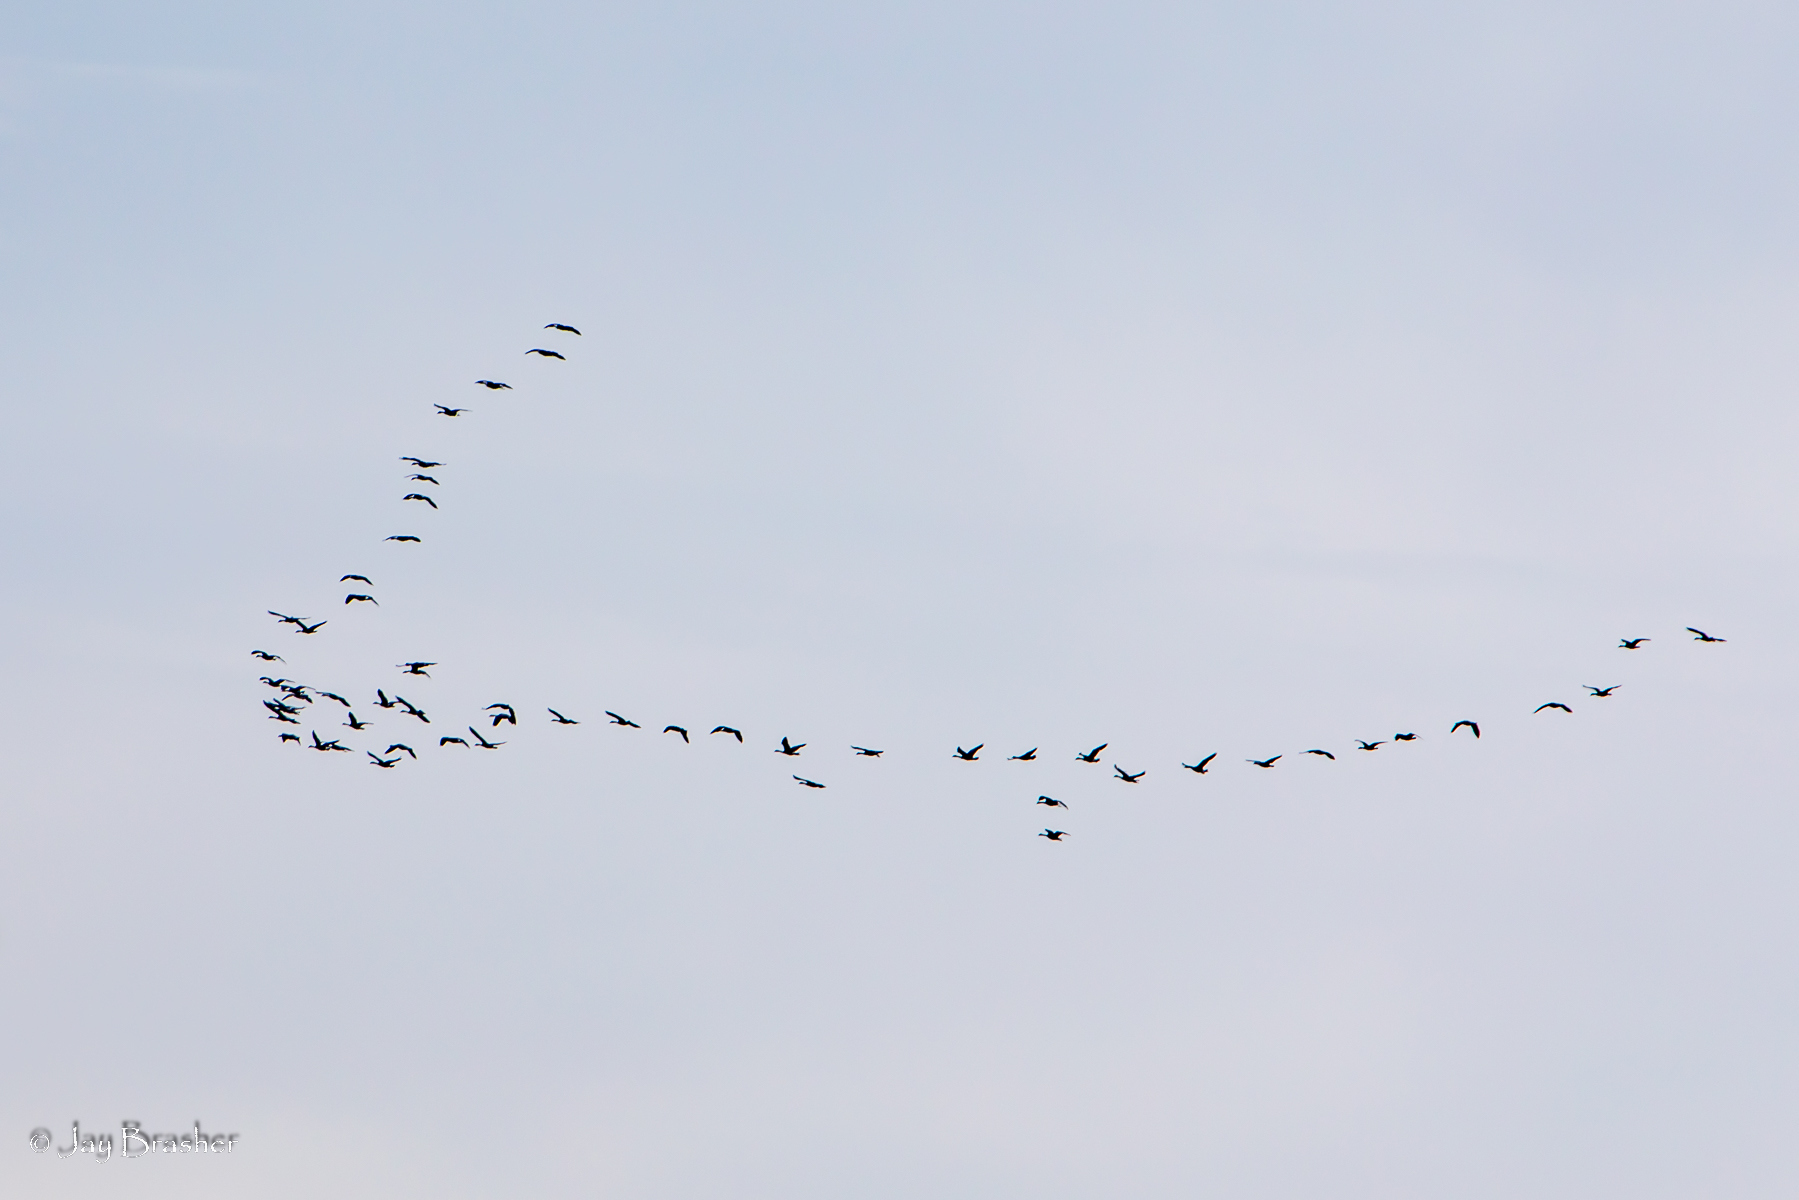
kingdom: Animalia
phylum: Chordata
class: Aves
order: Anseriformes
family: Anatidae
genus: Branta
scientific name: Branta canadensis
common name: Canada goose
